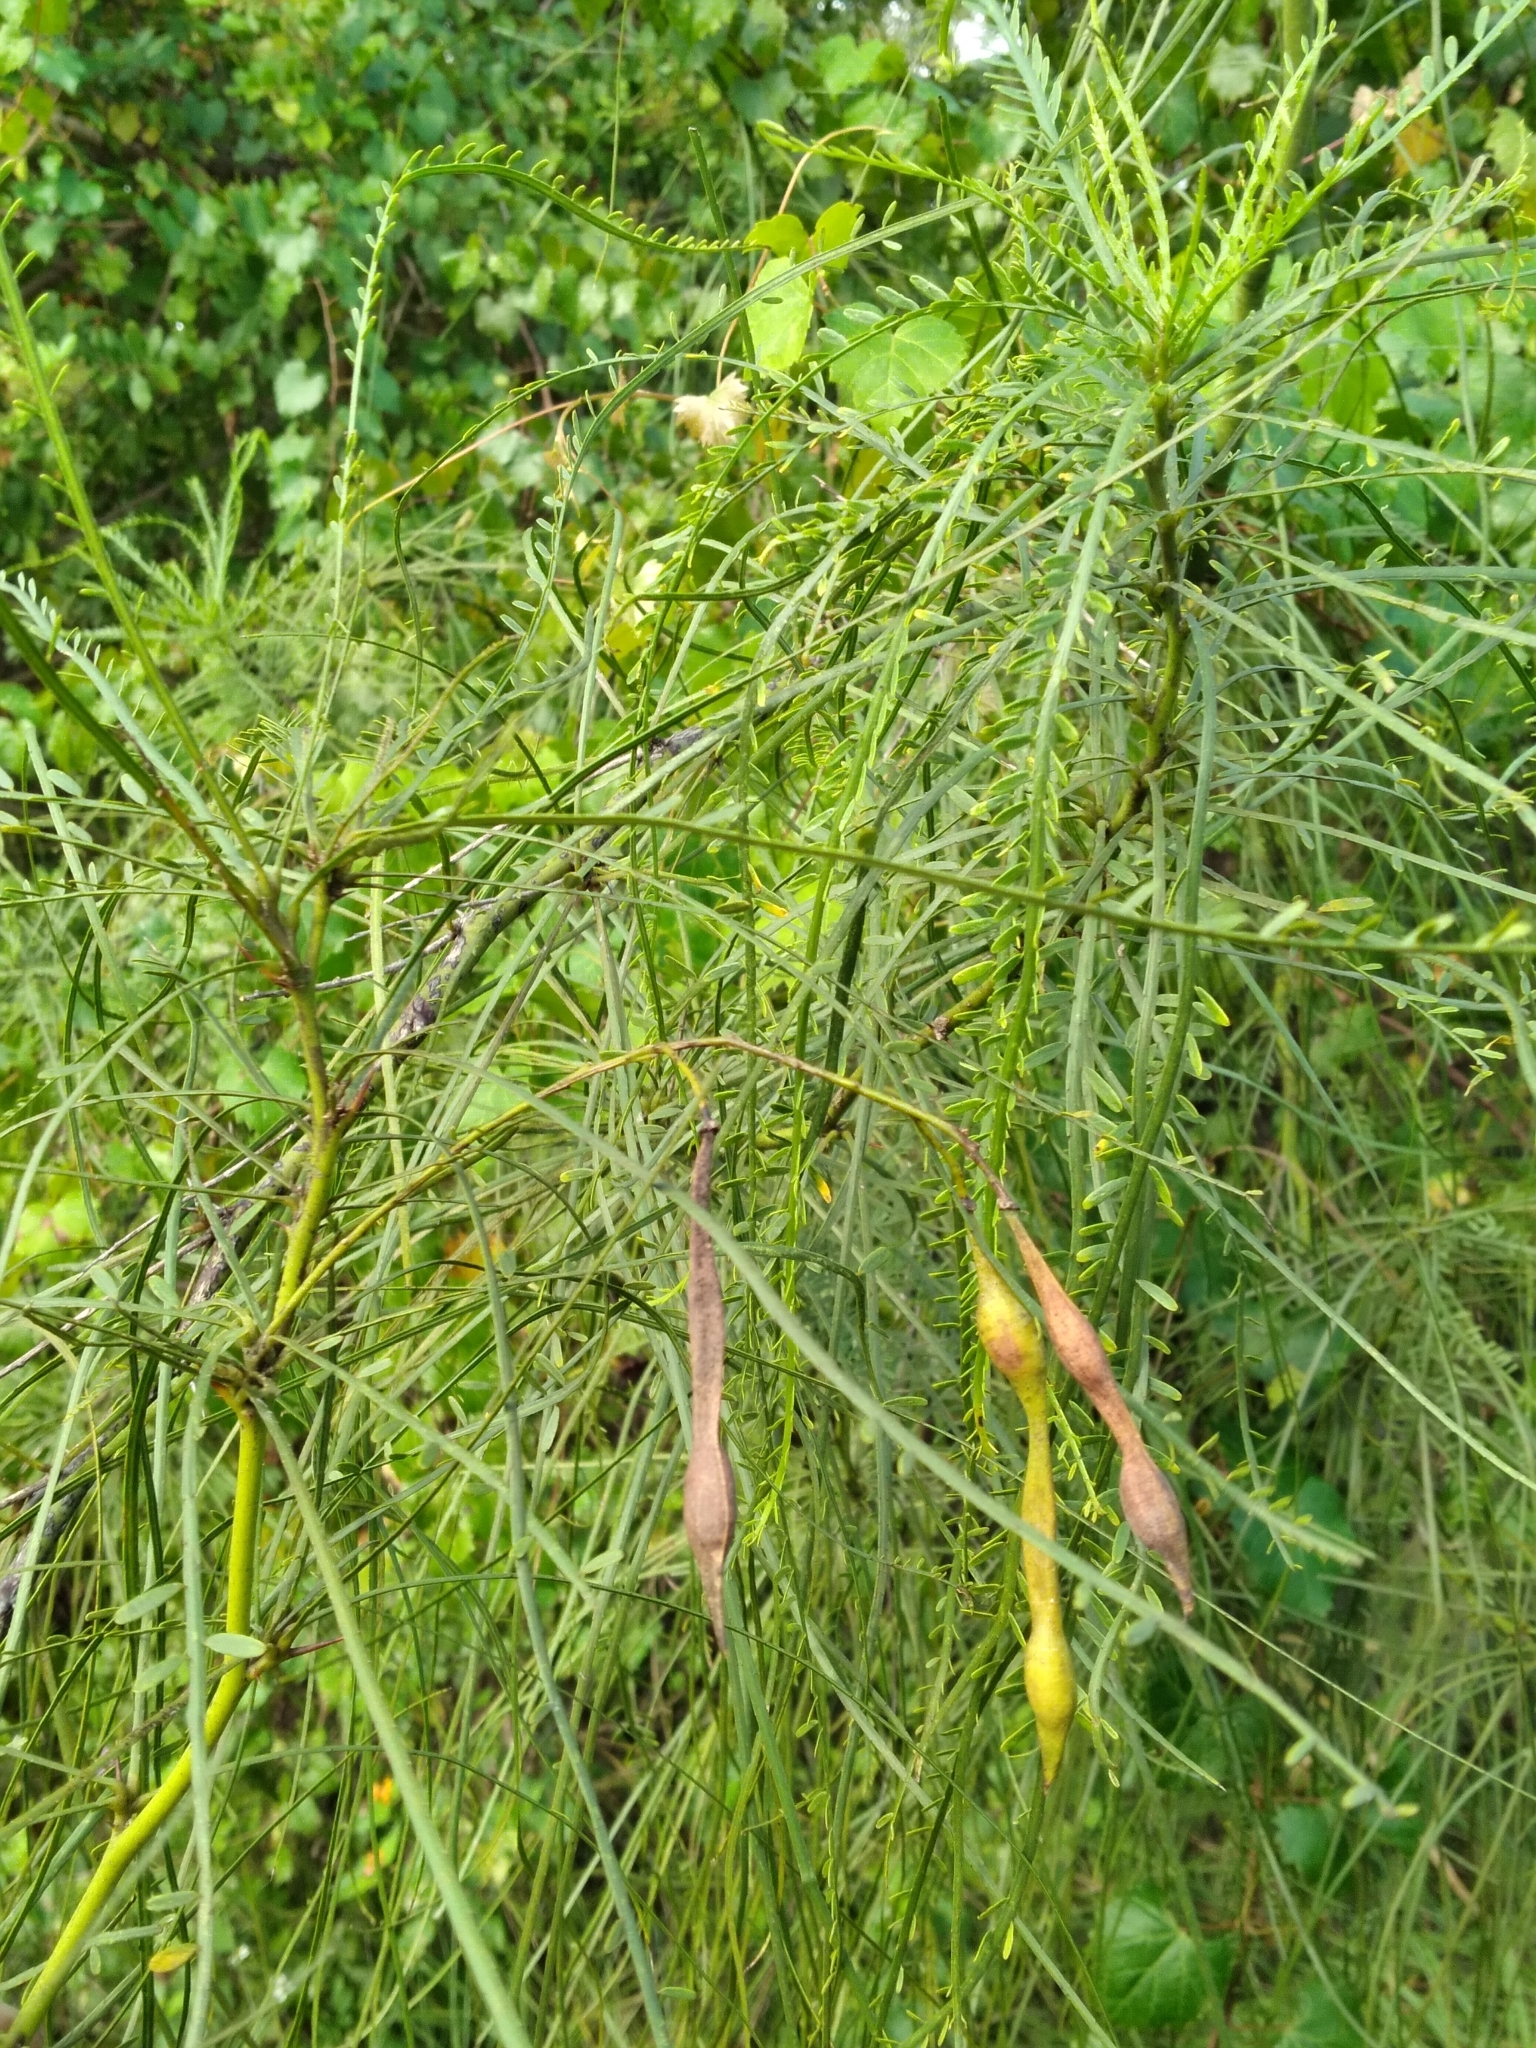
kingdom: Plantae
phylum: Tracheophyta
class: Magnoliopsida
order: Fabales
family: Fabaceae
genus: Parkinsonia
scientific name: Parkinsonia aculeata
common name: Jerusalem thorn
